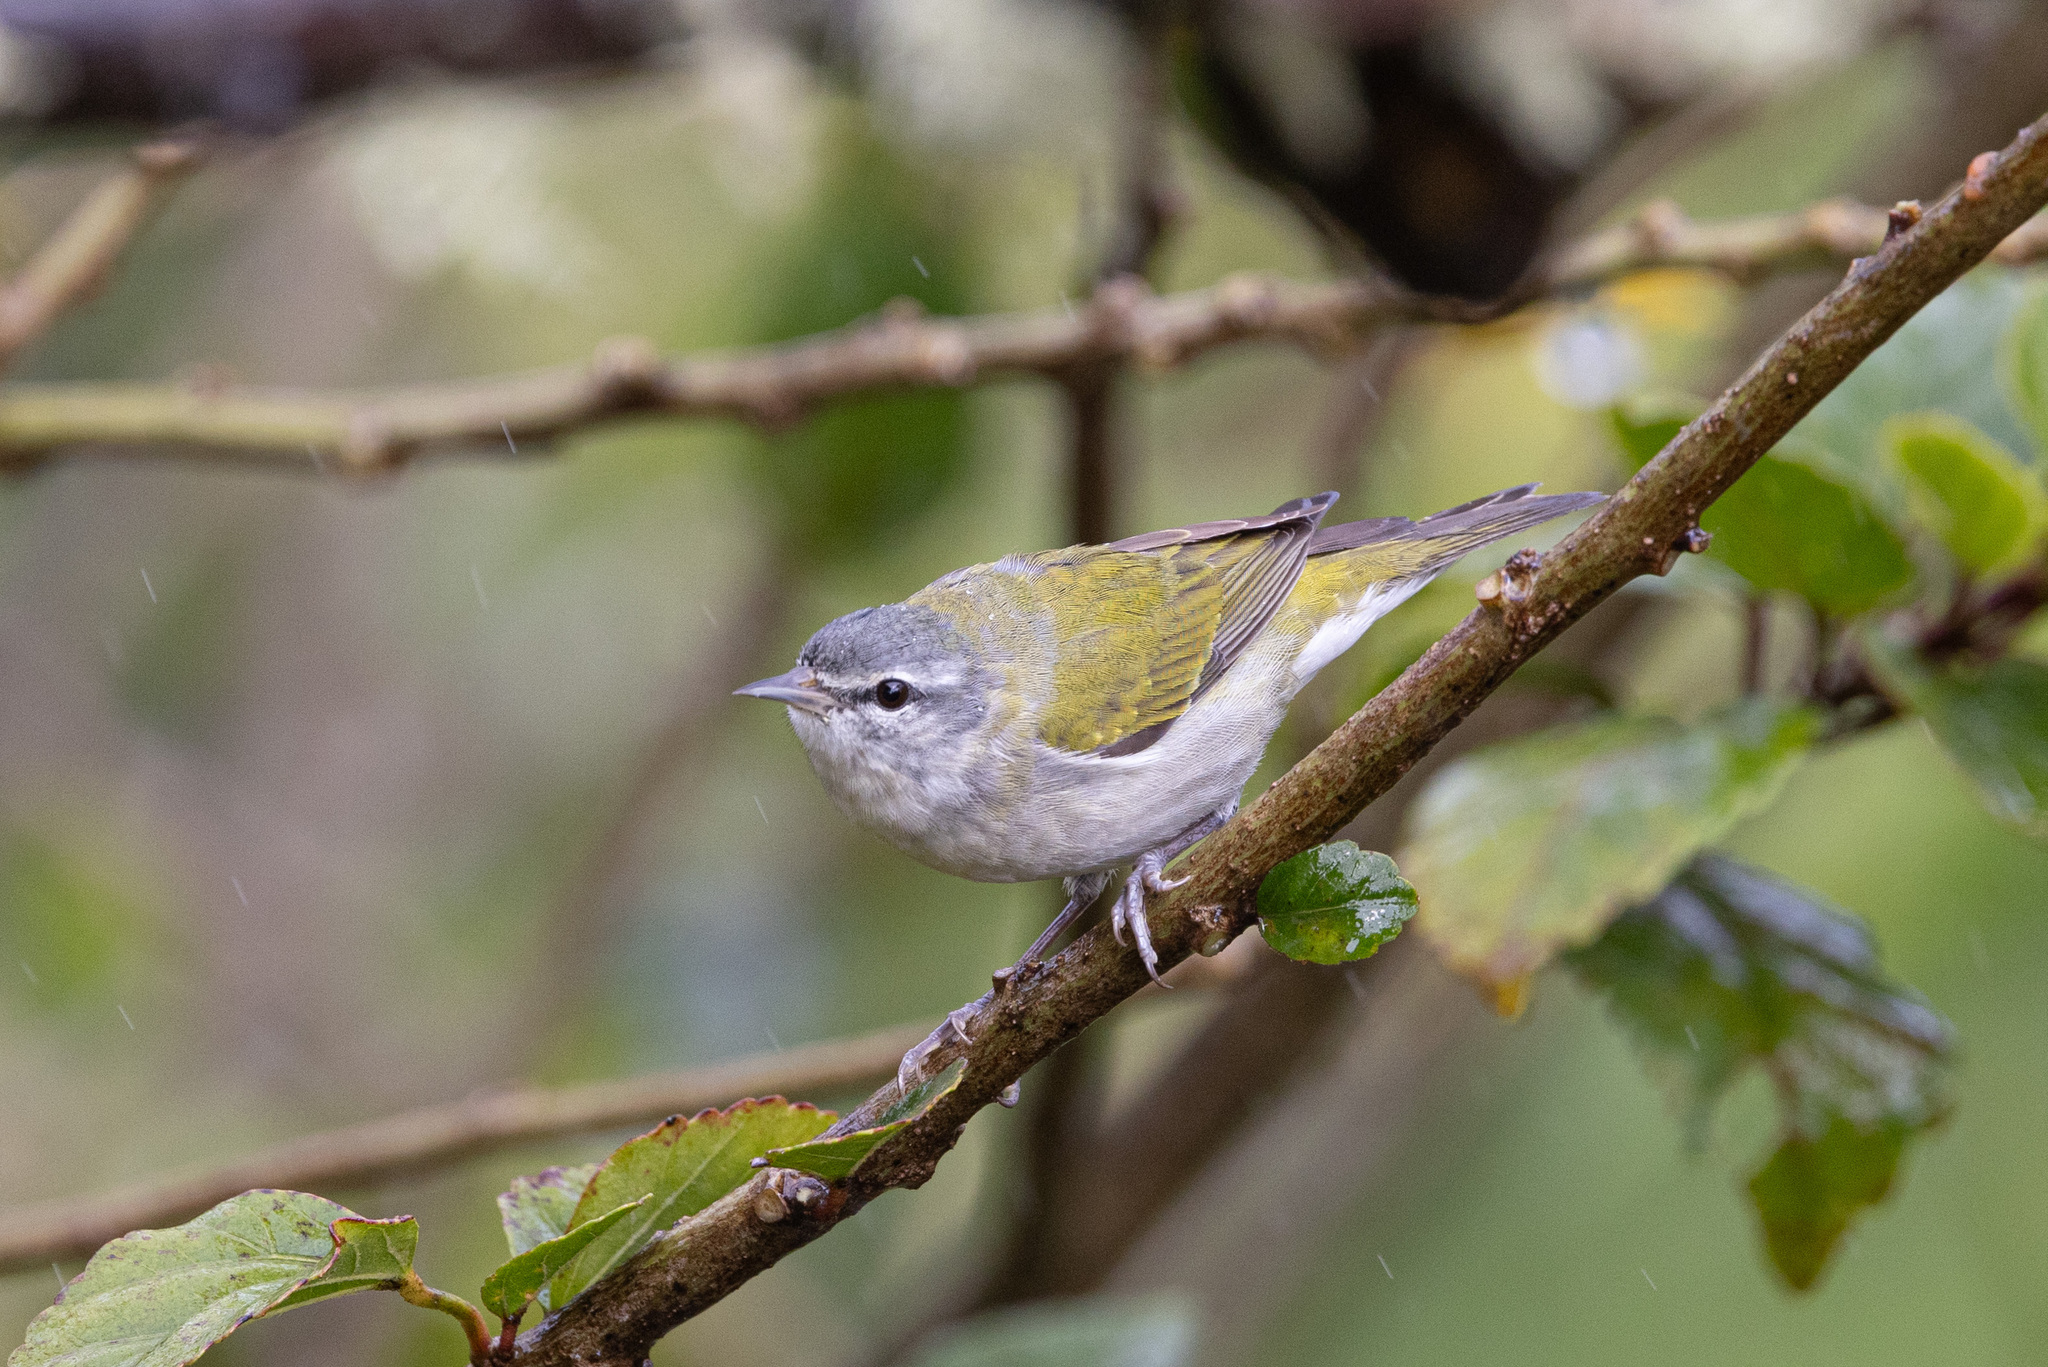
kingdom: Animalia
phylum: Chordata
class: Aves
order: Passeriformes
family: Parulidae
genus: Leiothlypis
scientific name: Leiothlypis peregrina
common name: Tennessee warbler
